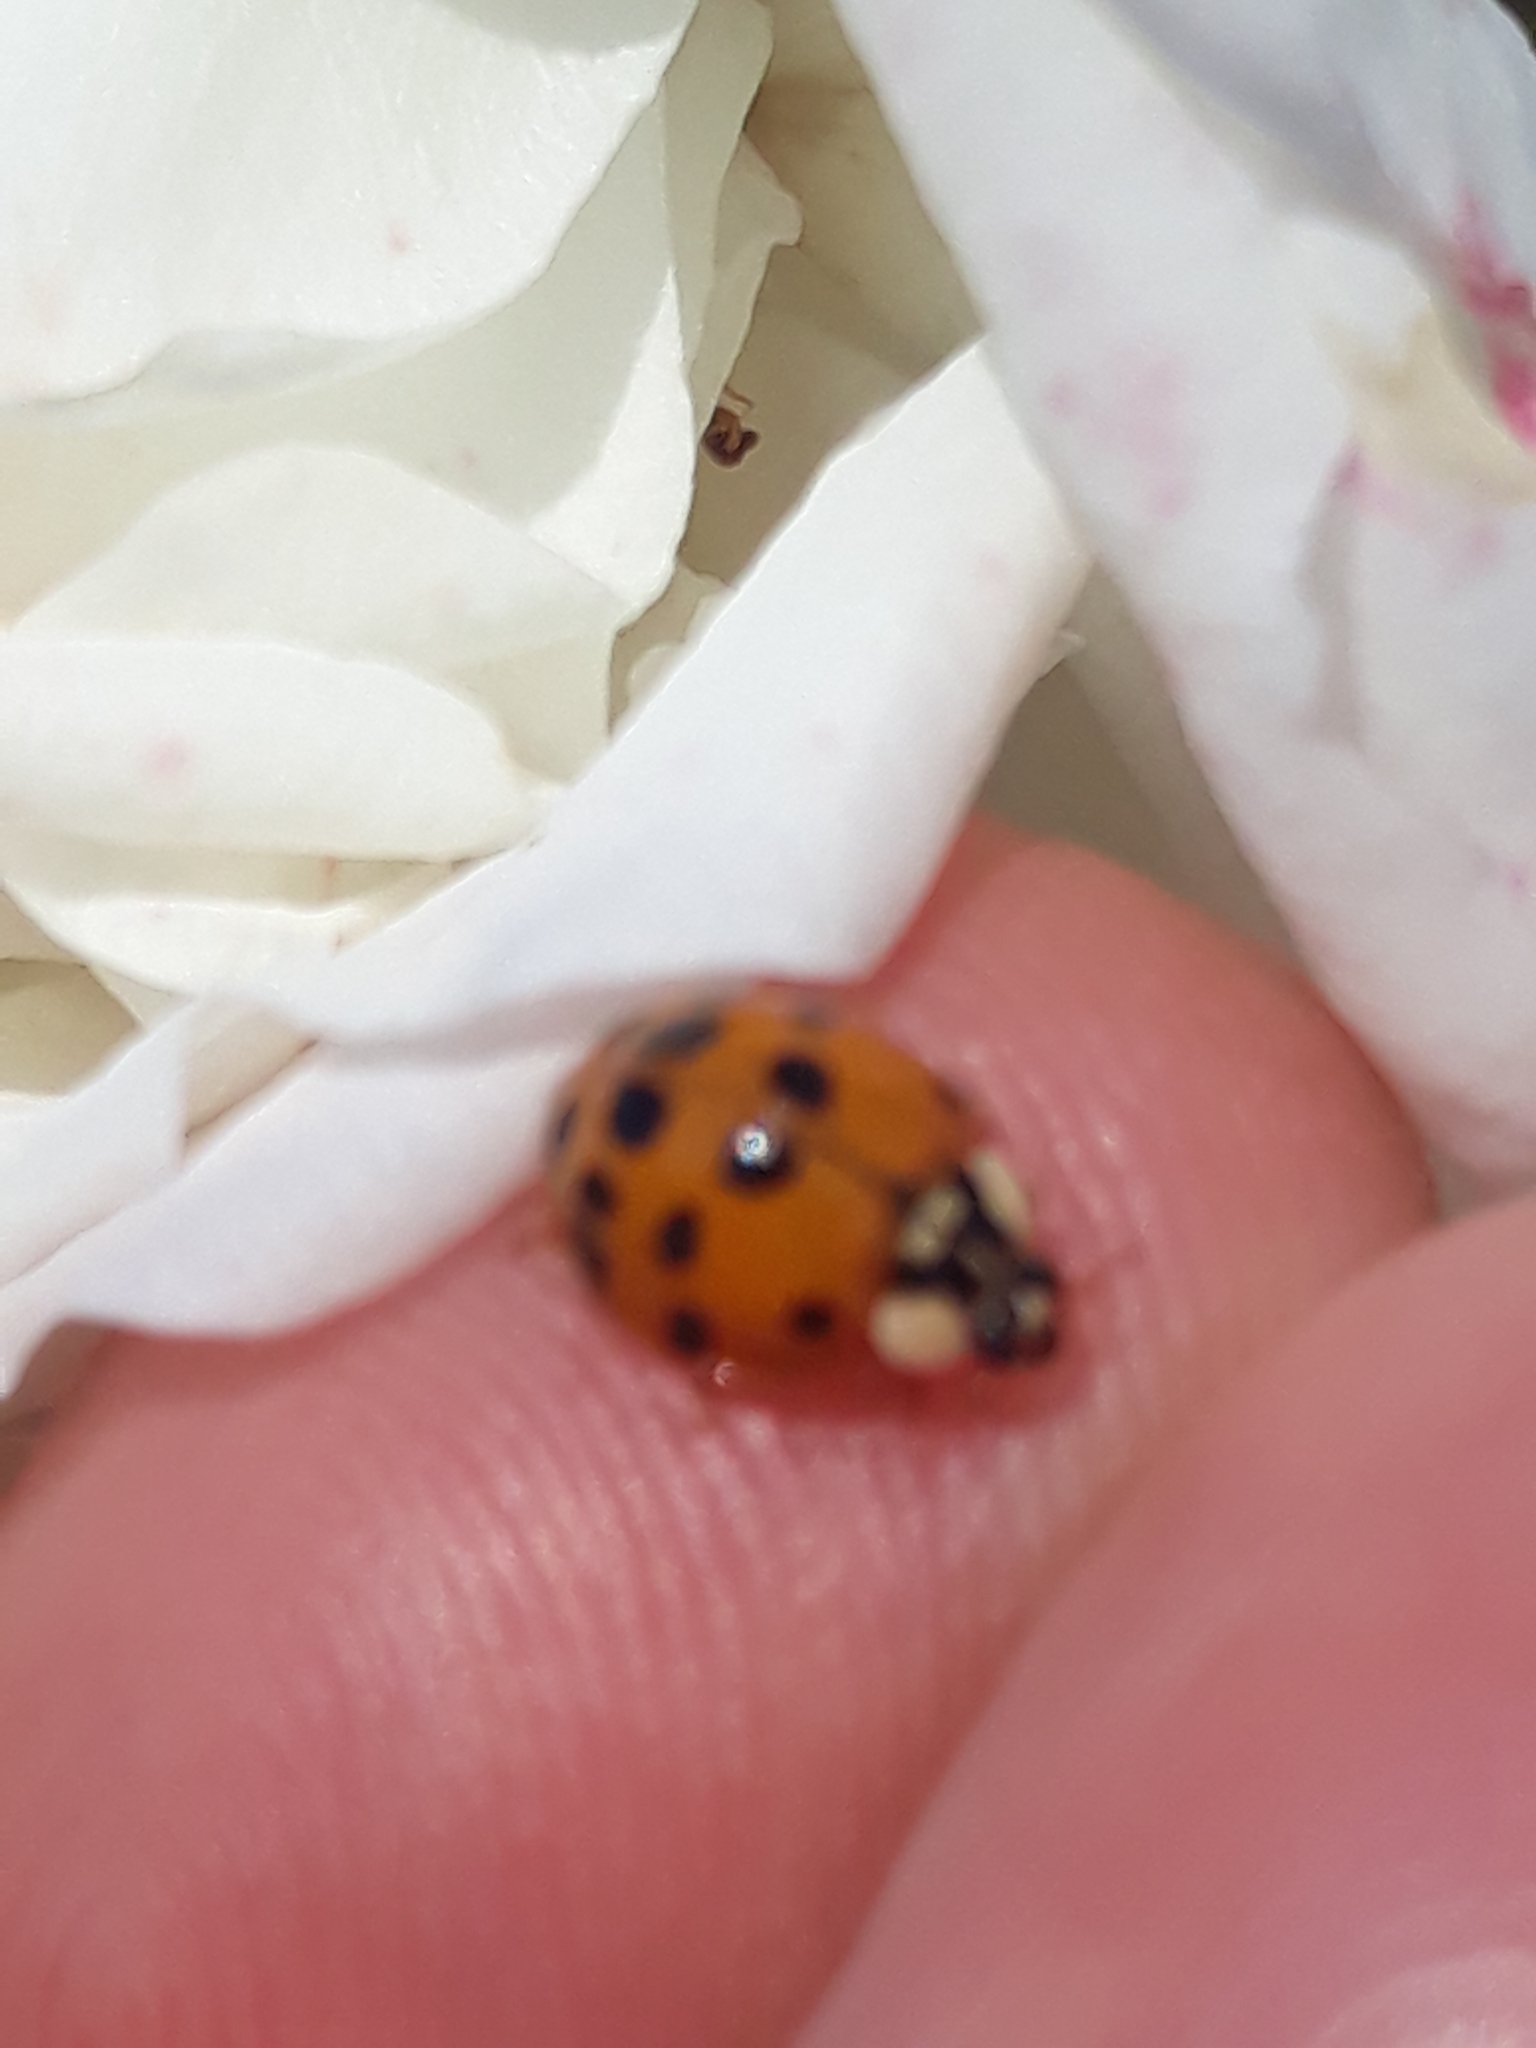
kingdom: Animalia
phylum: Arthropoda
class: Insecta
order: Coleoptera
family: Coccinellidae
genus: Harmonia
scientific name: Harmonia axyridis
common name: Harlequin ladybird
